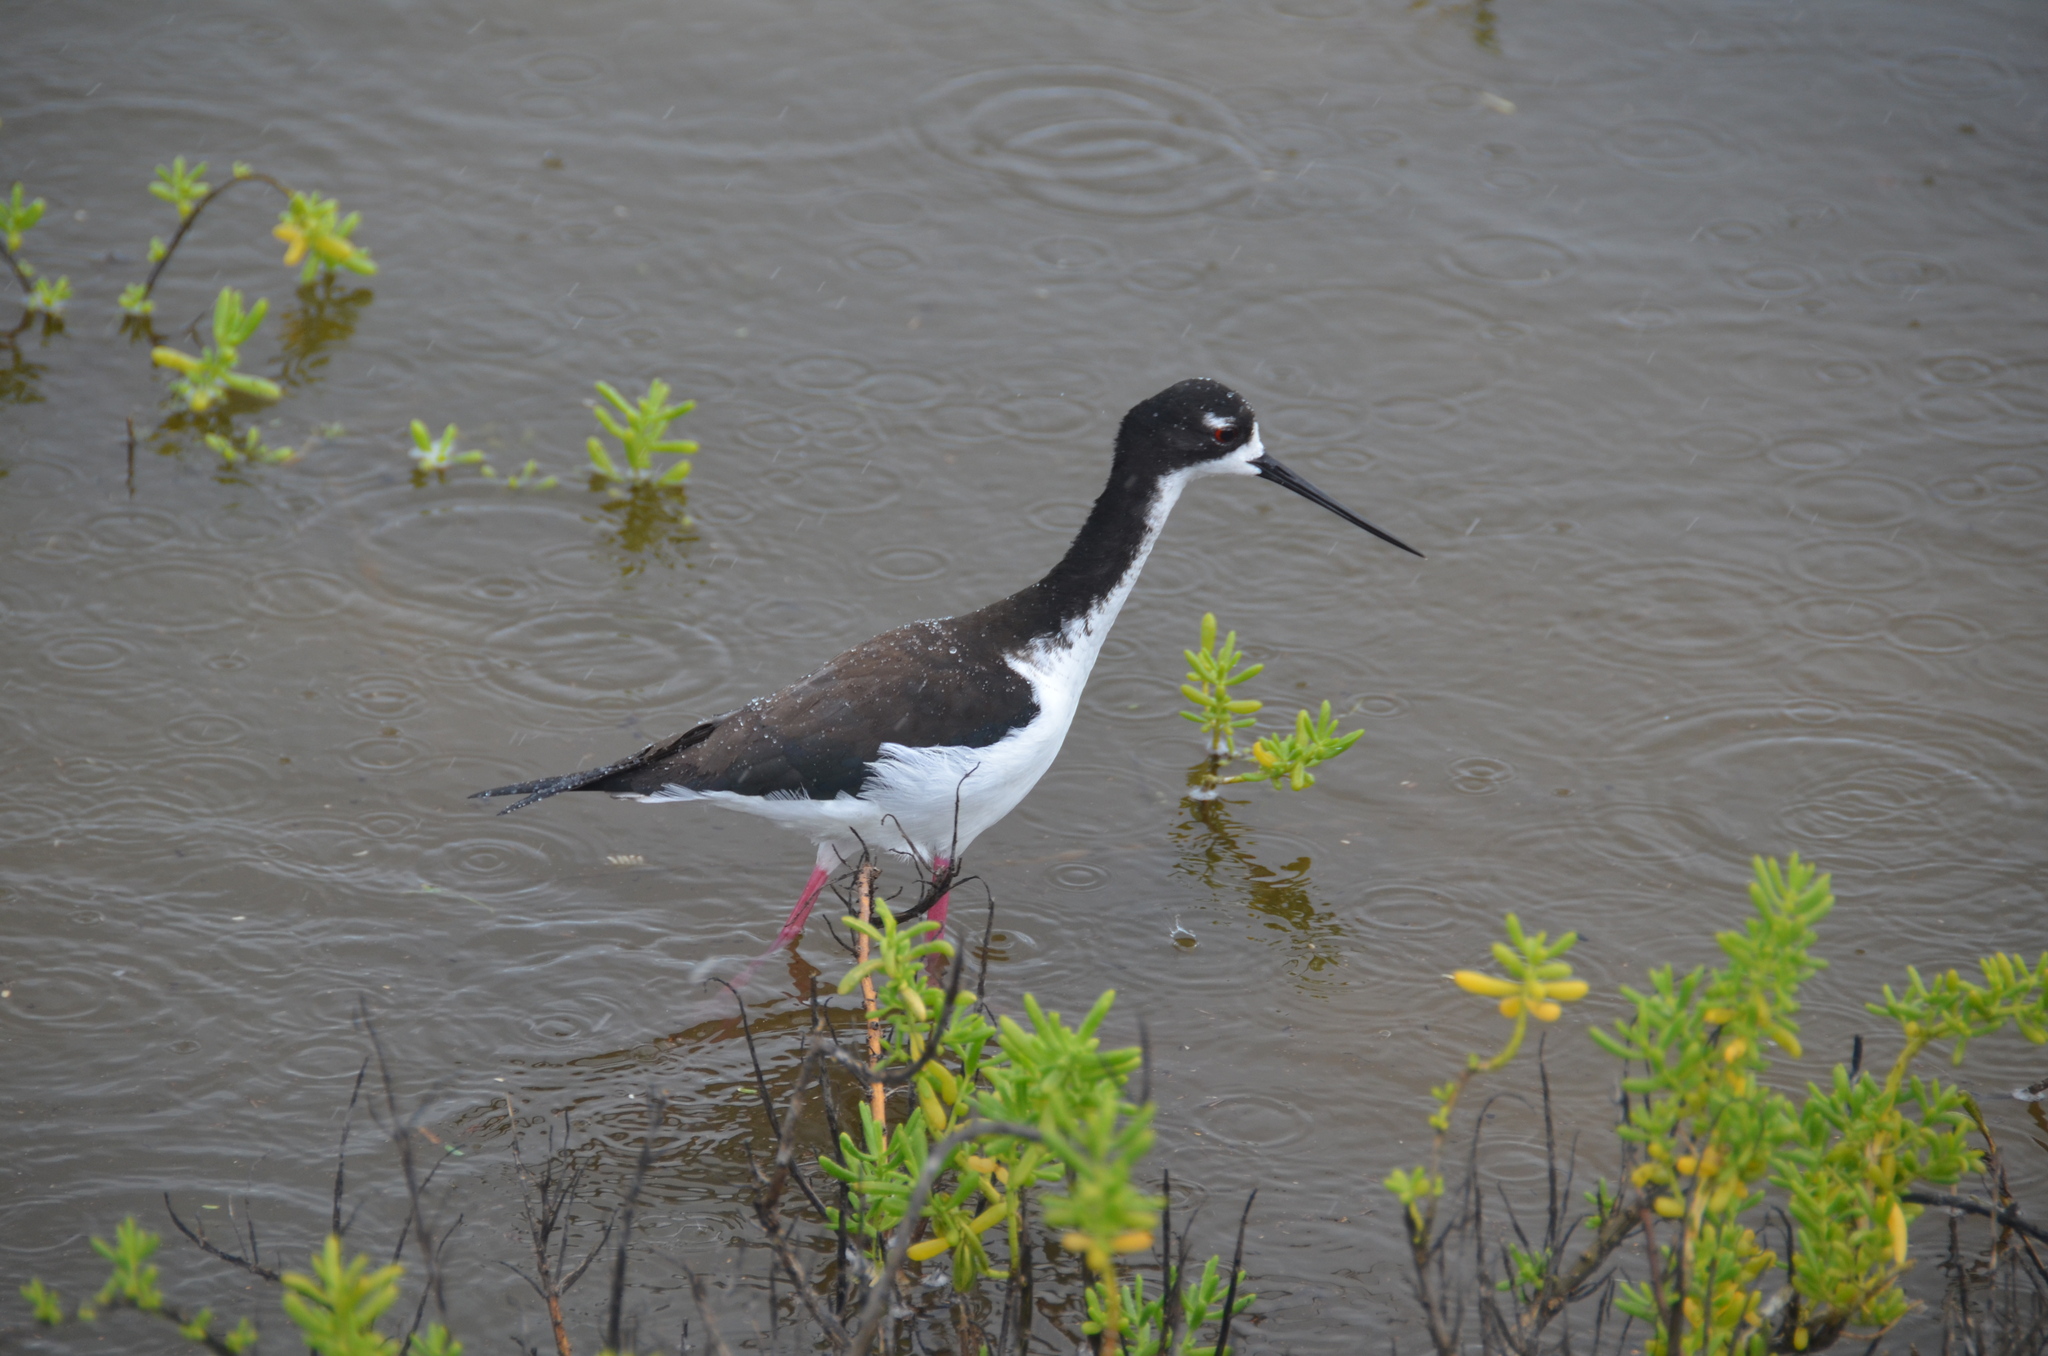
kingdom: Animalia
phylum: Chordata
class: Aves
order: Charadriiformes
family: Recurvirostridae
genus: Himantopus
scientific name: Himantopus mexicanus
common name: Black-necked stilt
